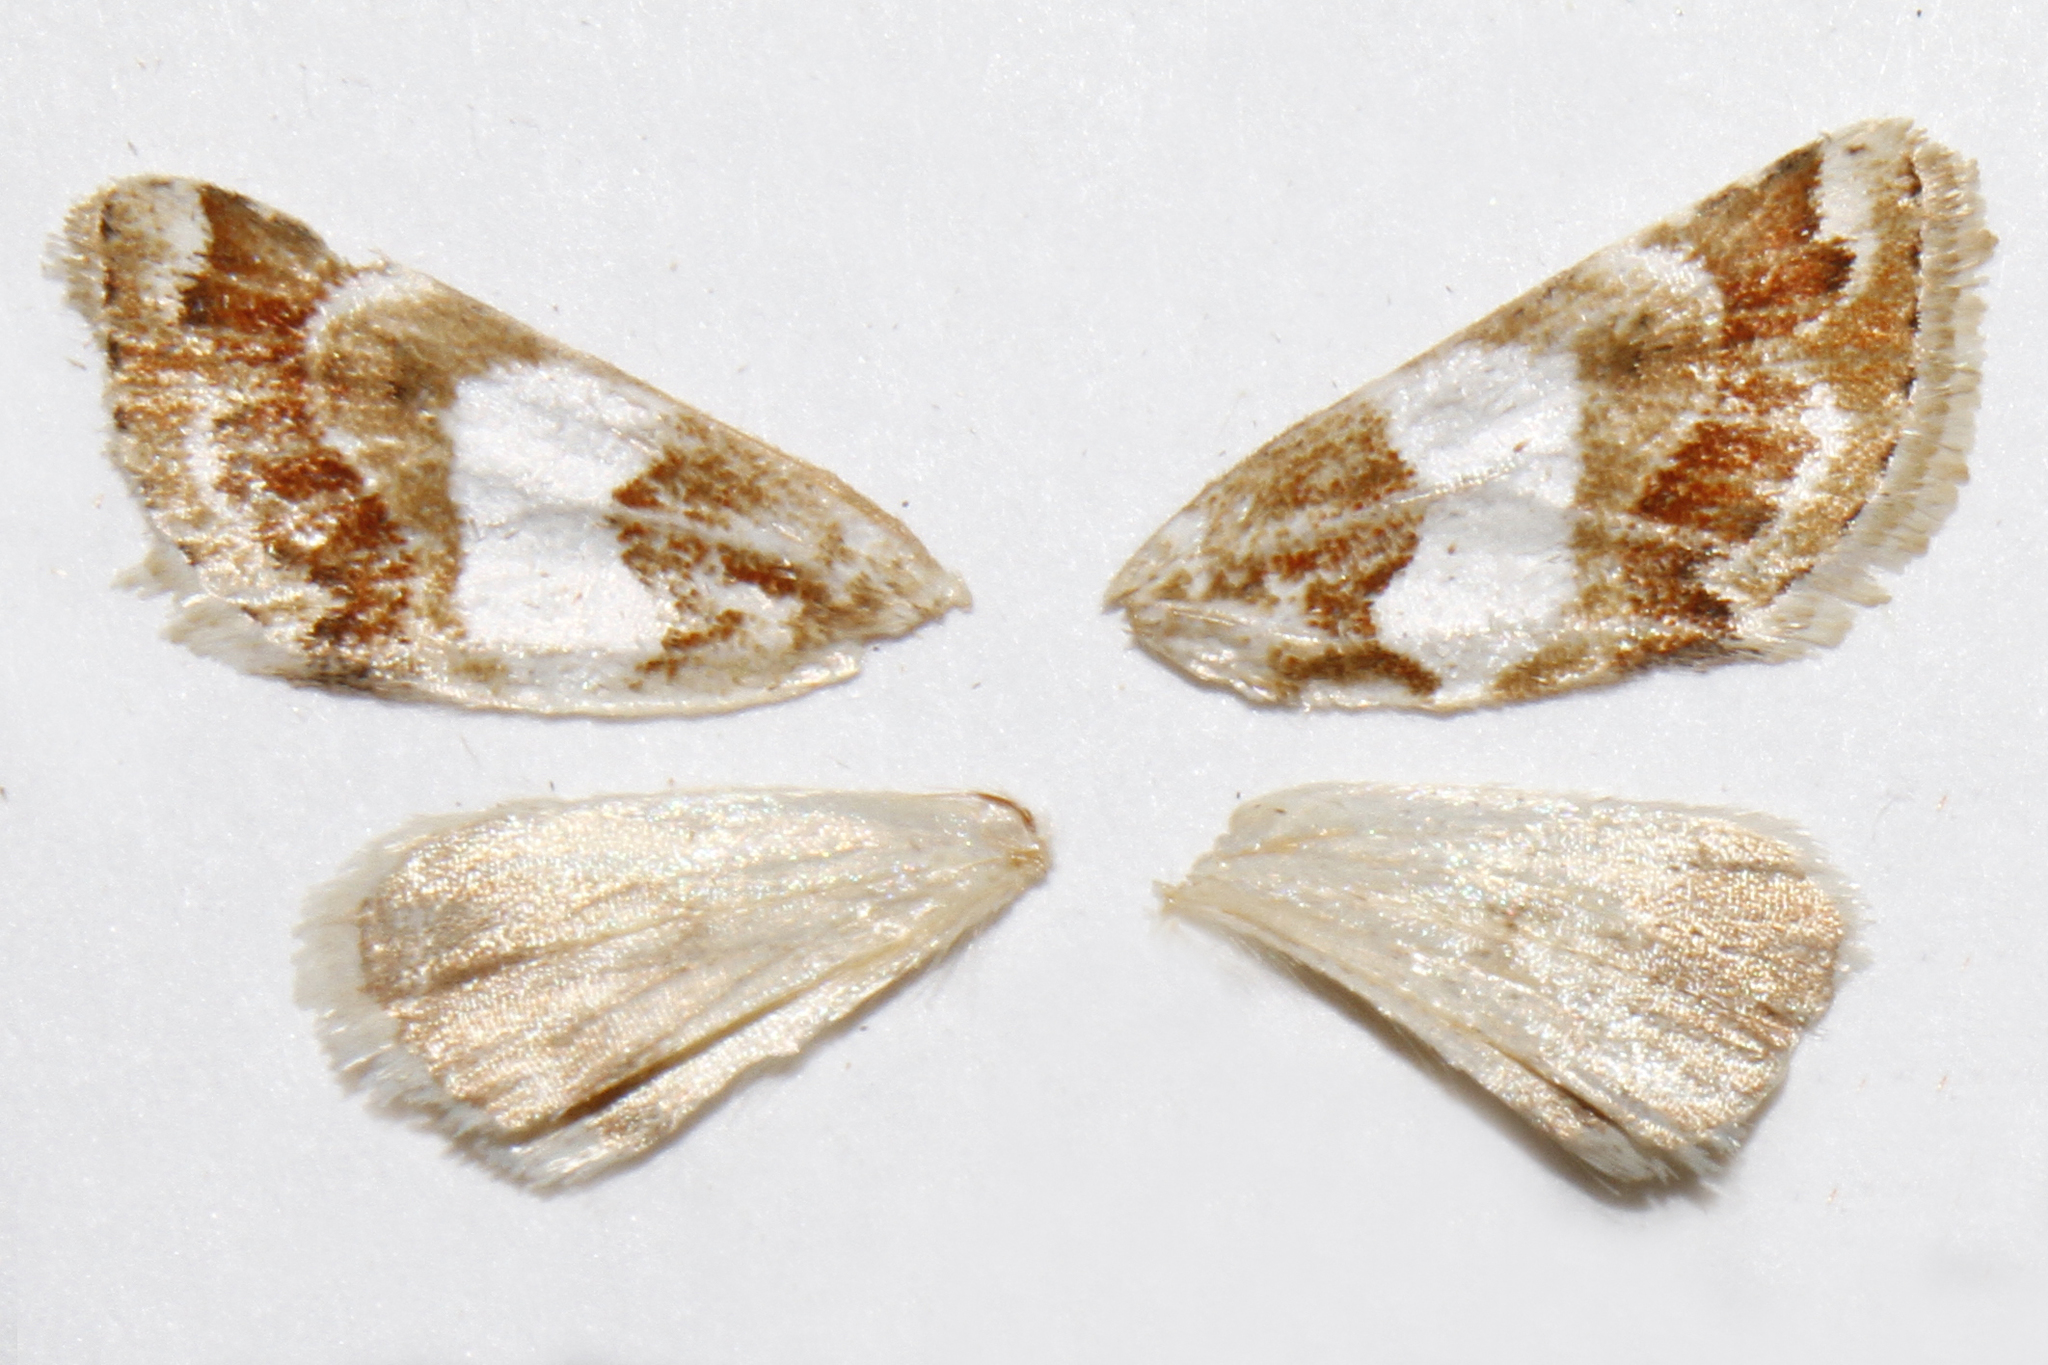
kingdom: Animalia
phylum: Arthropoda
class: Insecta
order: Lepidoptera
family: Noctuidae
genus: Schinia
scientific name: Schinia argentifascia
